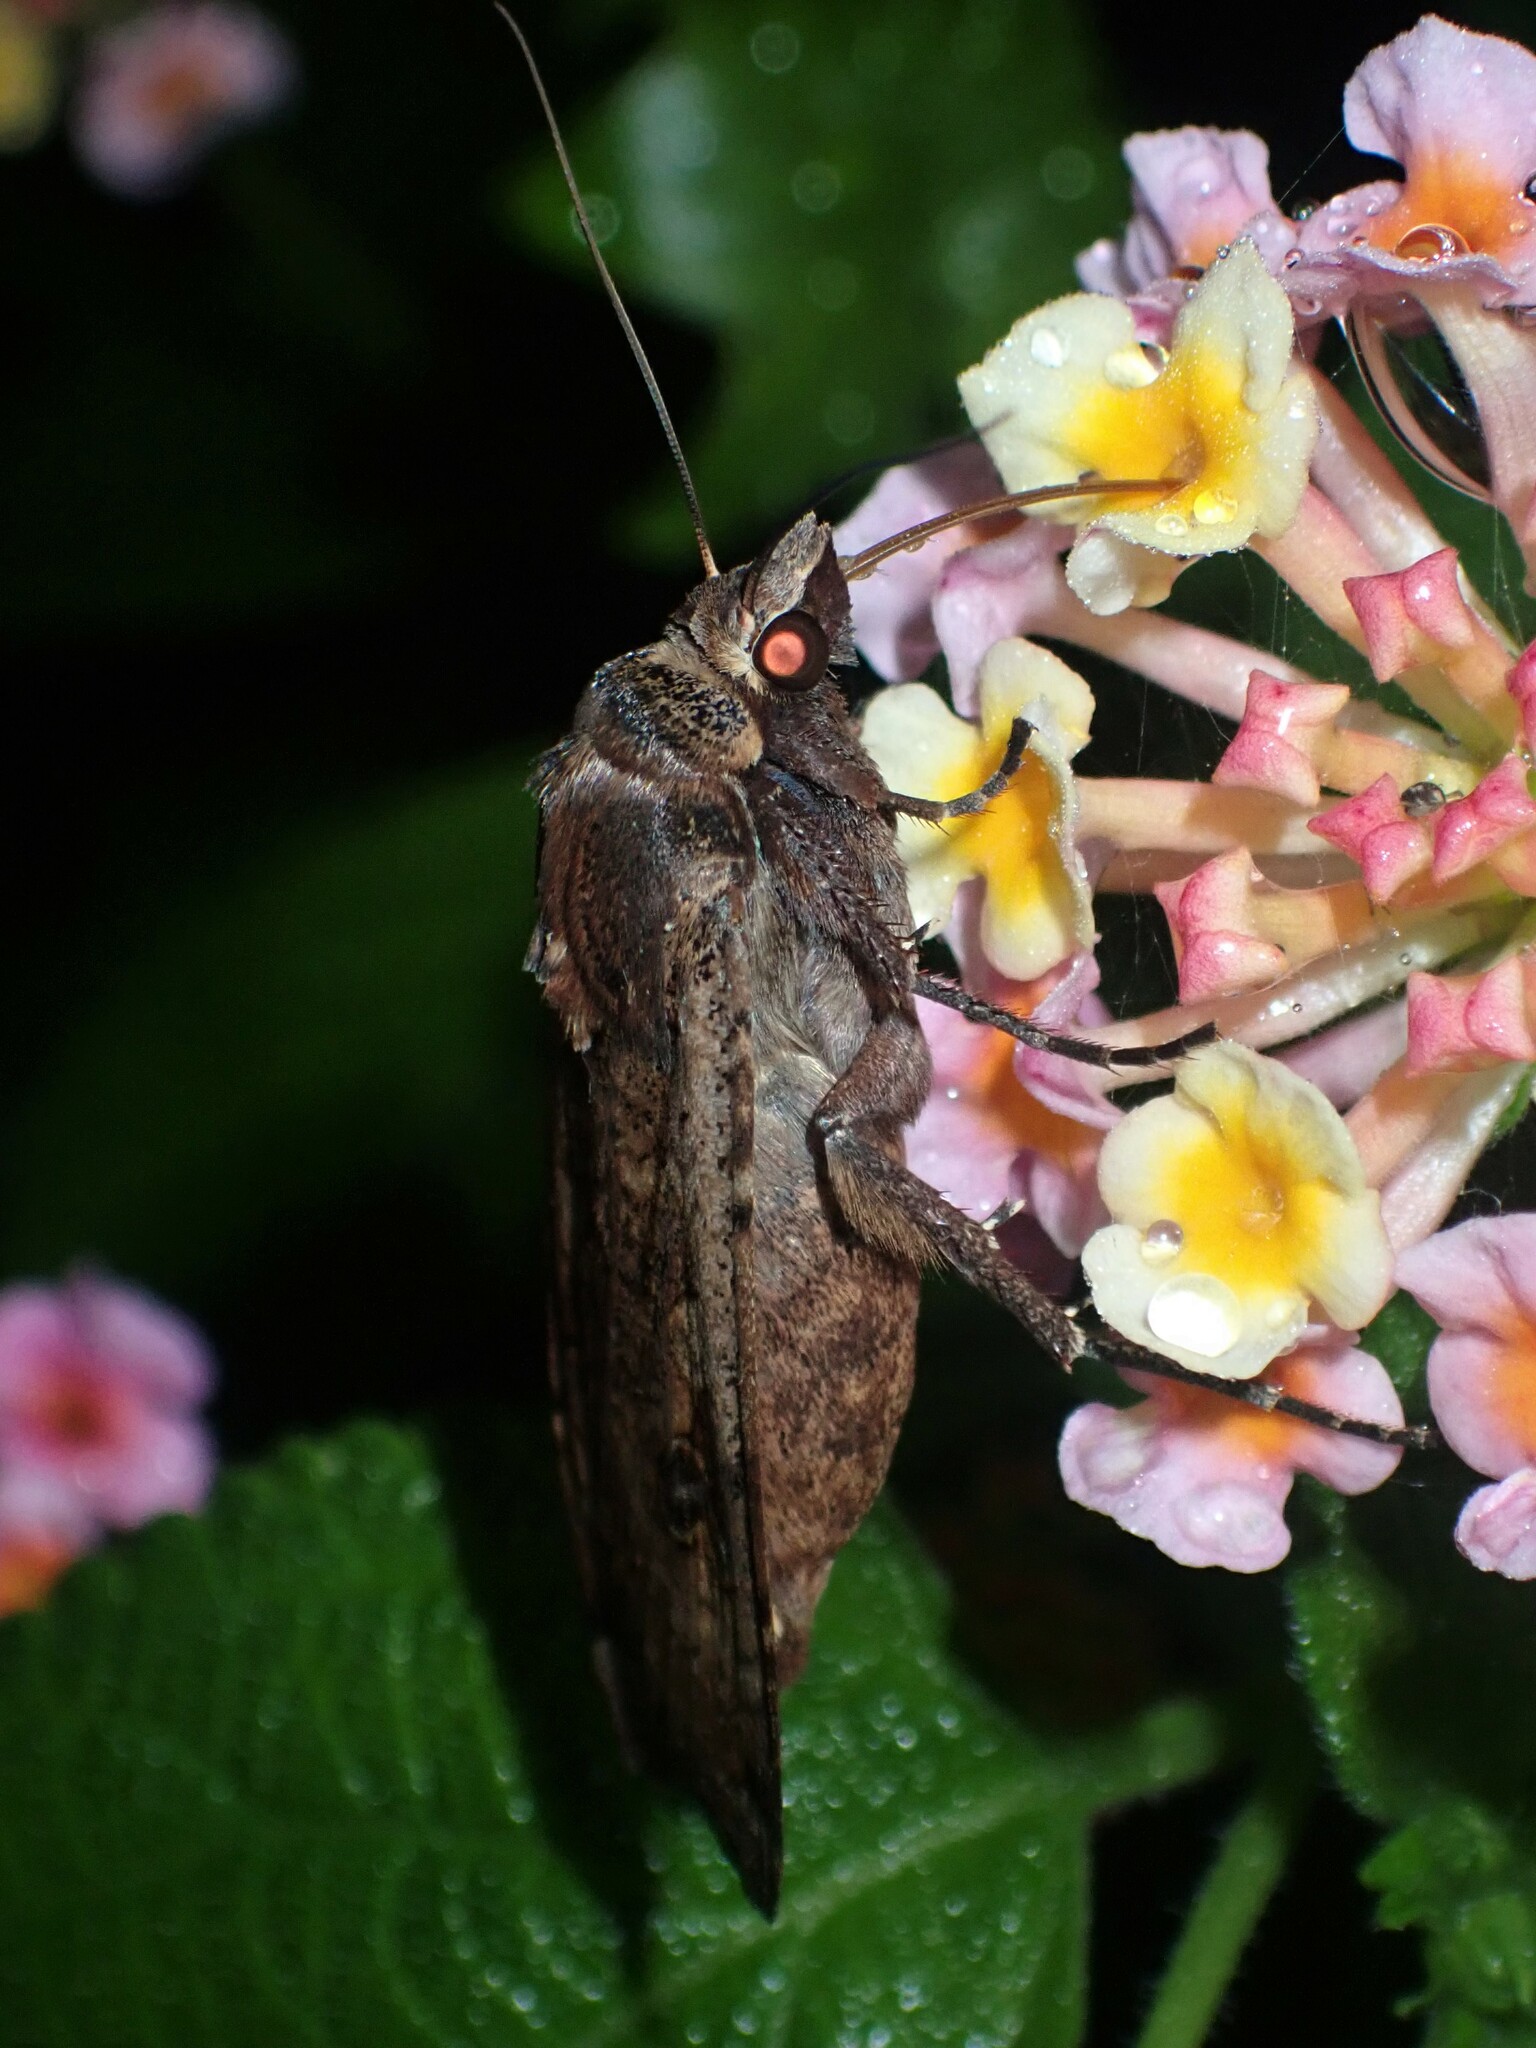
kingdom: Animalia
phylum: Arthropoda
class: Insecta
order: Lepidoptera
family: Noctuidae
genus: Noctua
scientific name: Noctua pronuba
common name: Large yellow underwing
